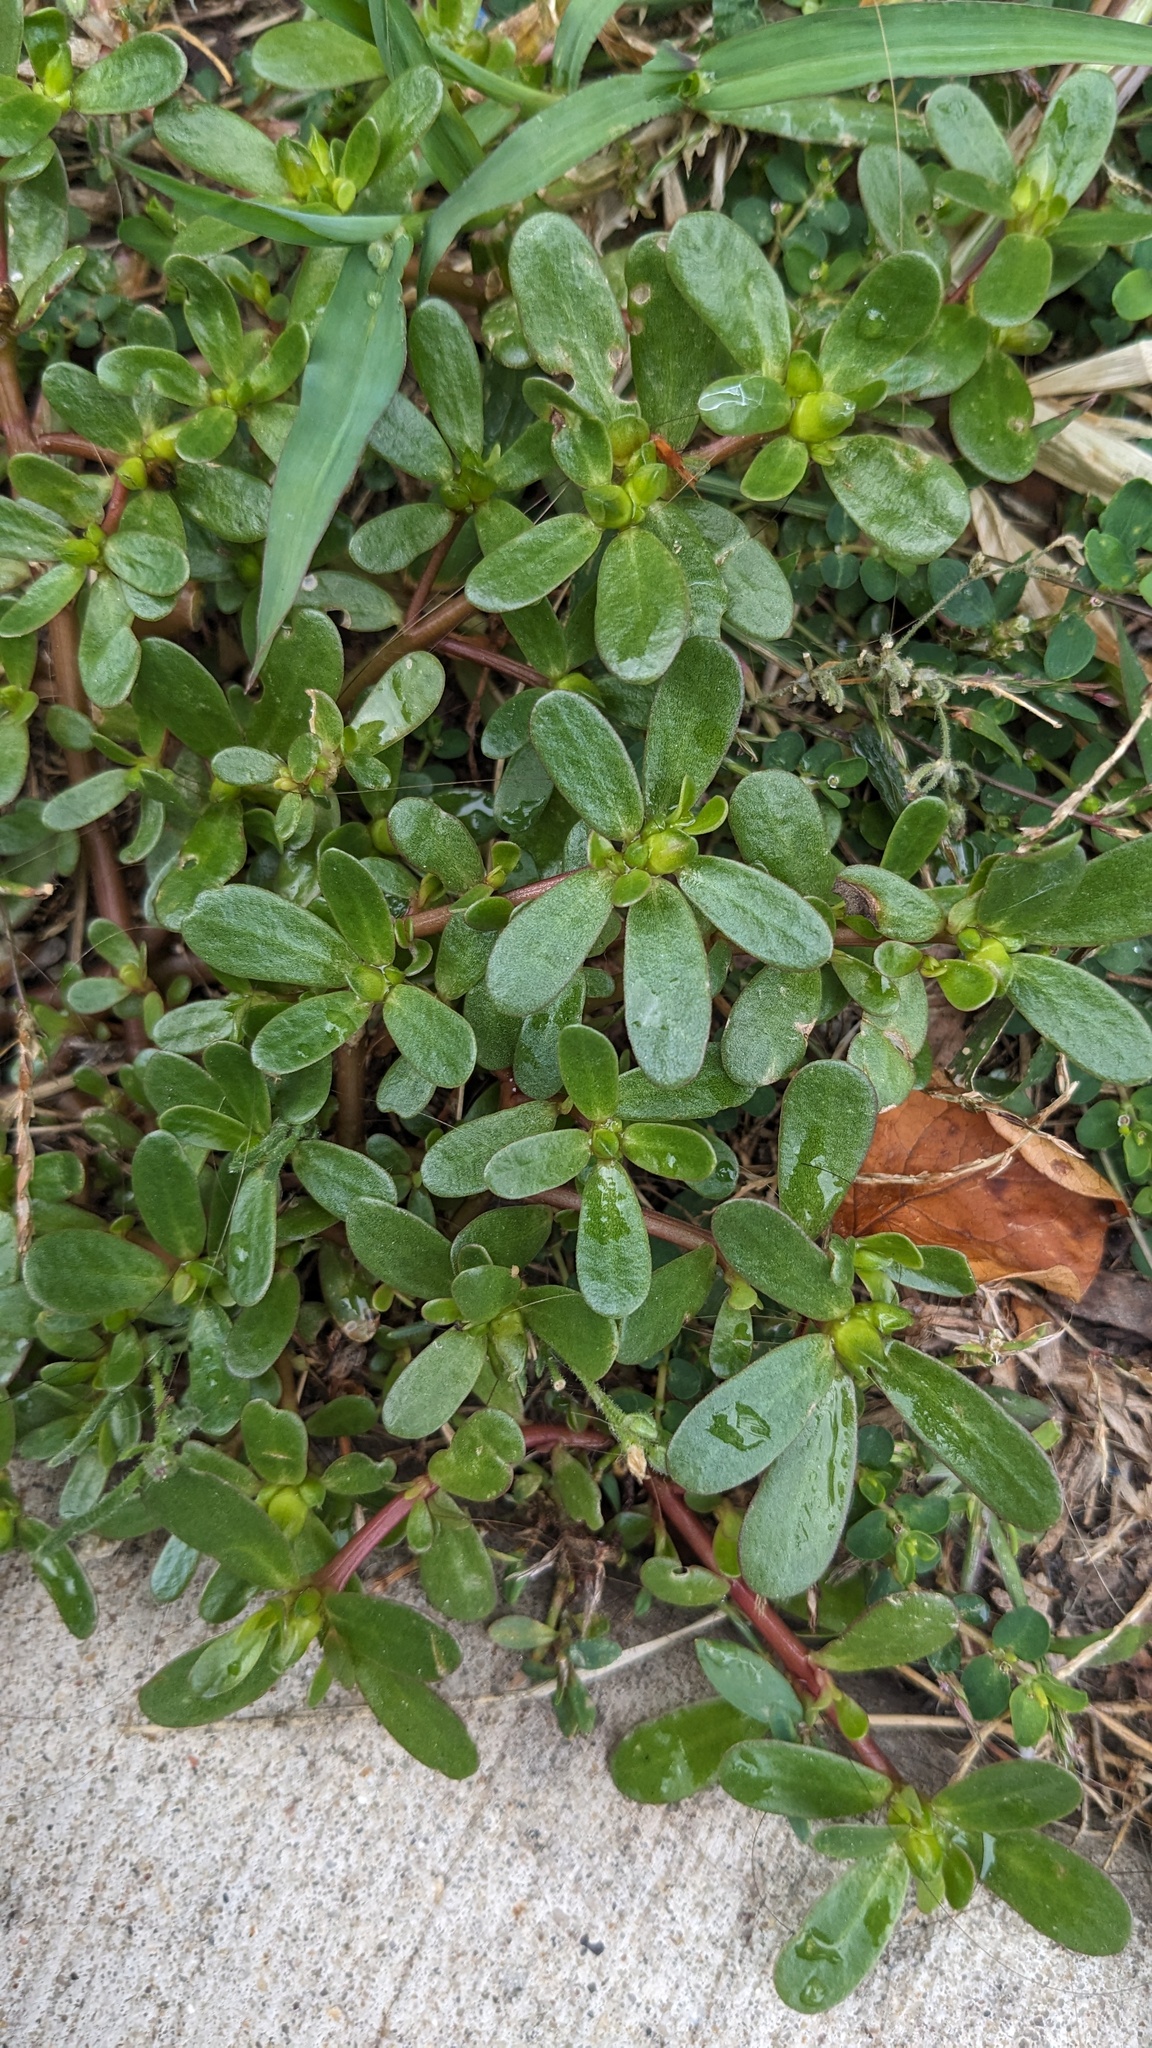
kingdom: Plantae
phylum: Tracheophyta
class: Magnoliopsida
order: Caryophyllales
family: Portulacaceae
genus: Portulaca
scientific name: Portulaca oleracea
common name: Common purslane
